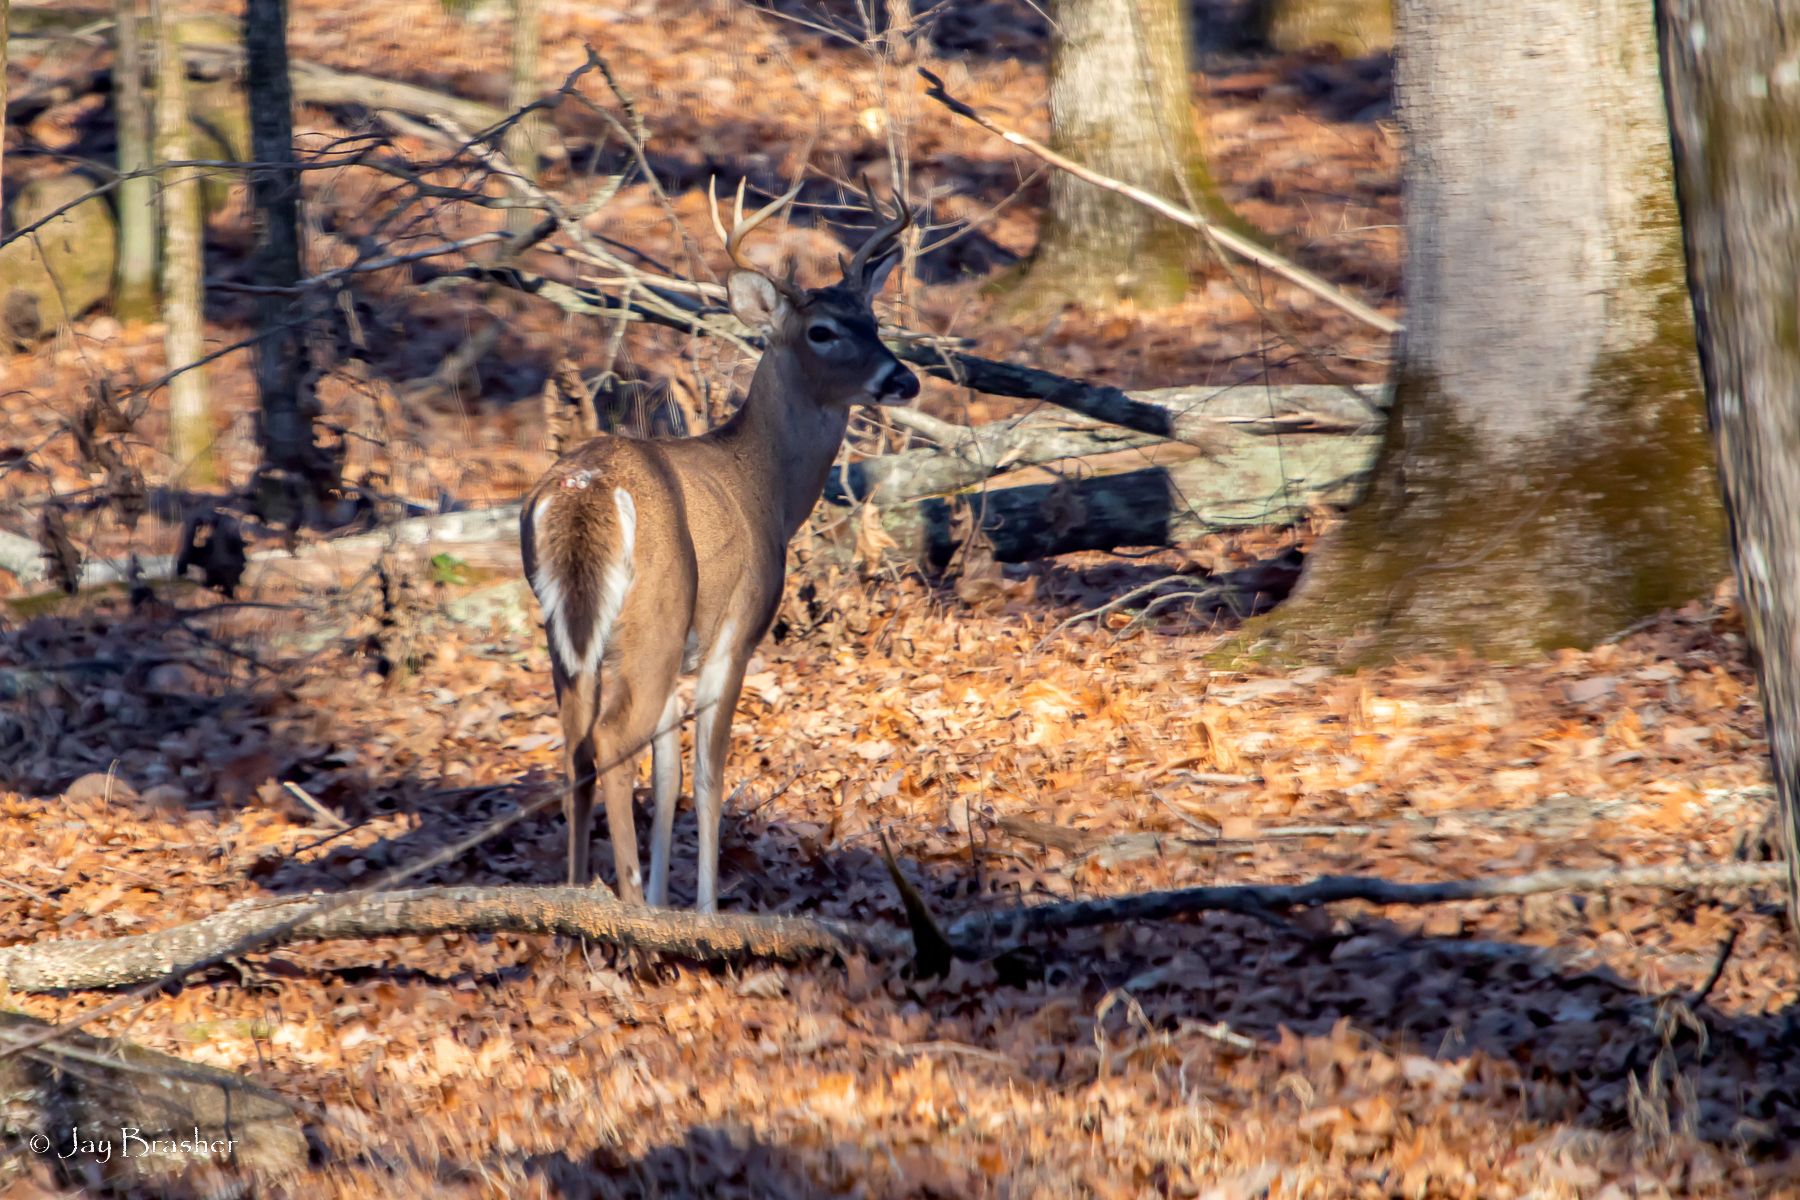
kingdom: Animalia
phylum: Chordata
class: Mammalia
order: Artiodactyla
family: Cervidae
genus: Odocoileus
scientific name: Odocoileus virginianus
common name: White-tailed deer
